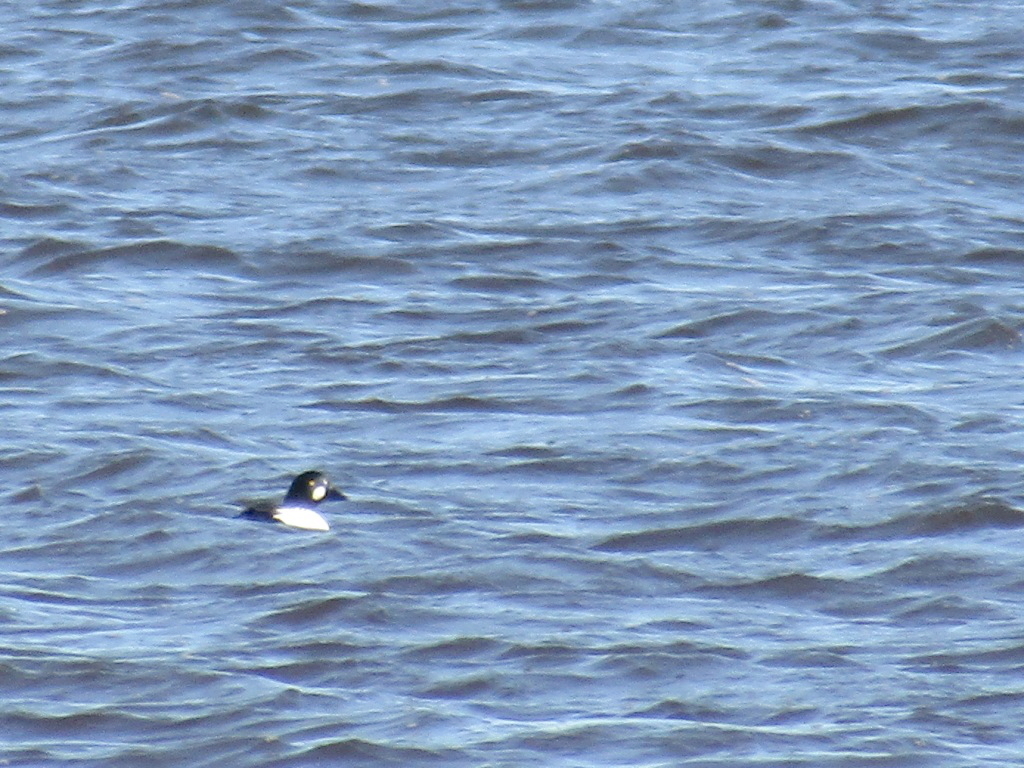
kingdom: Animalia
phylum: Chordata
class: Aves
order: Anseriformes
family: Anatidae
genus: Bucephala
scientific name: Bucephala clangula
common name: Common goldeneye
